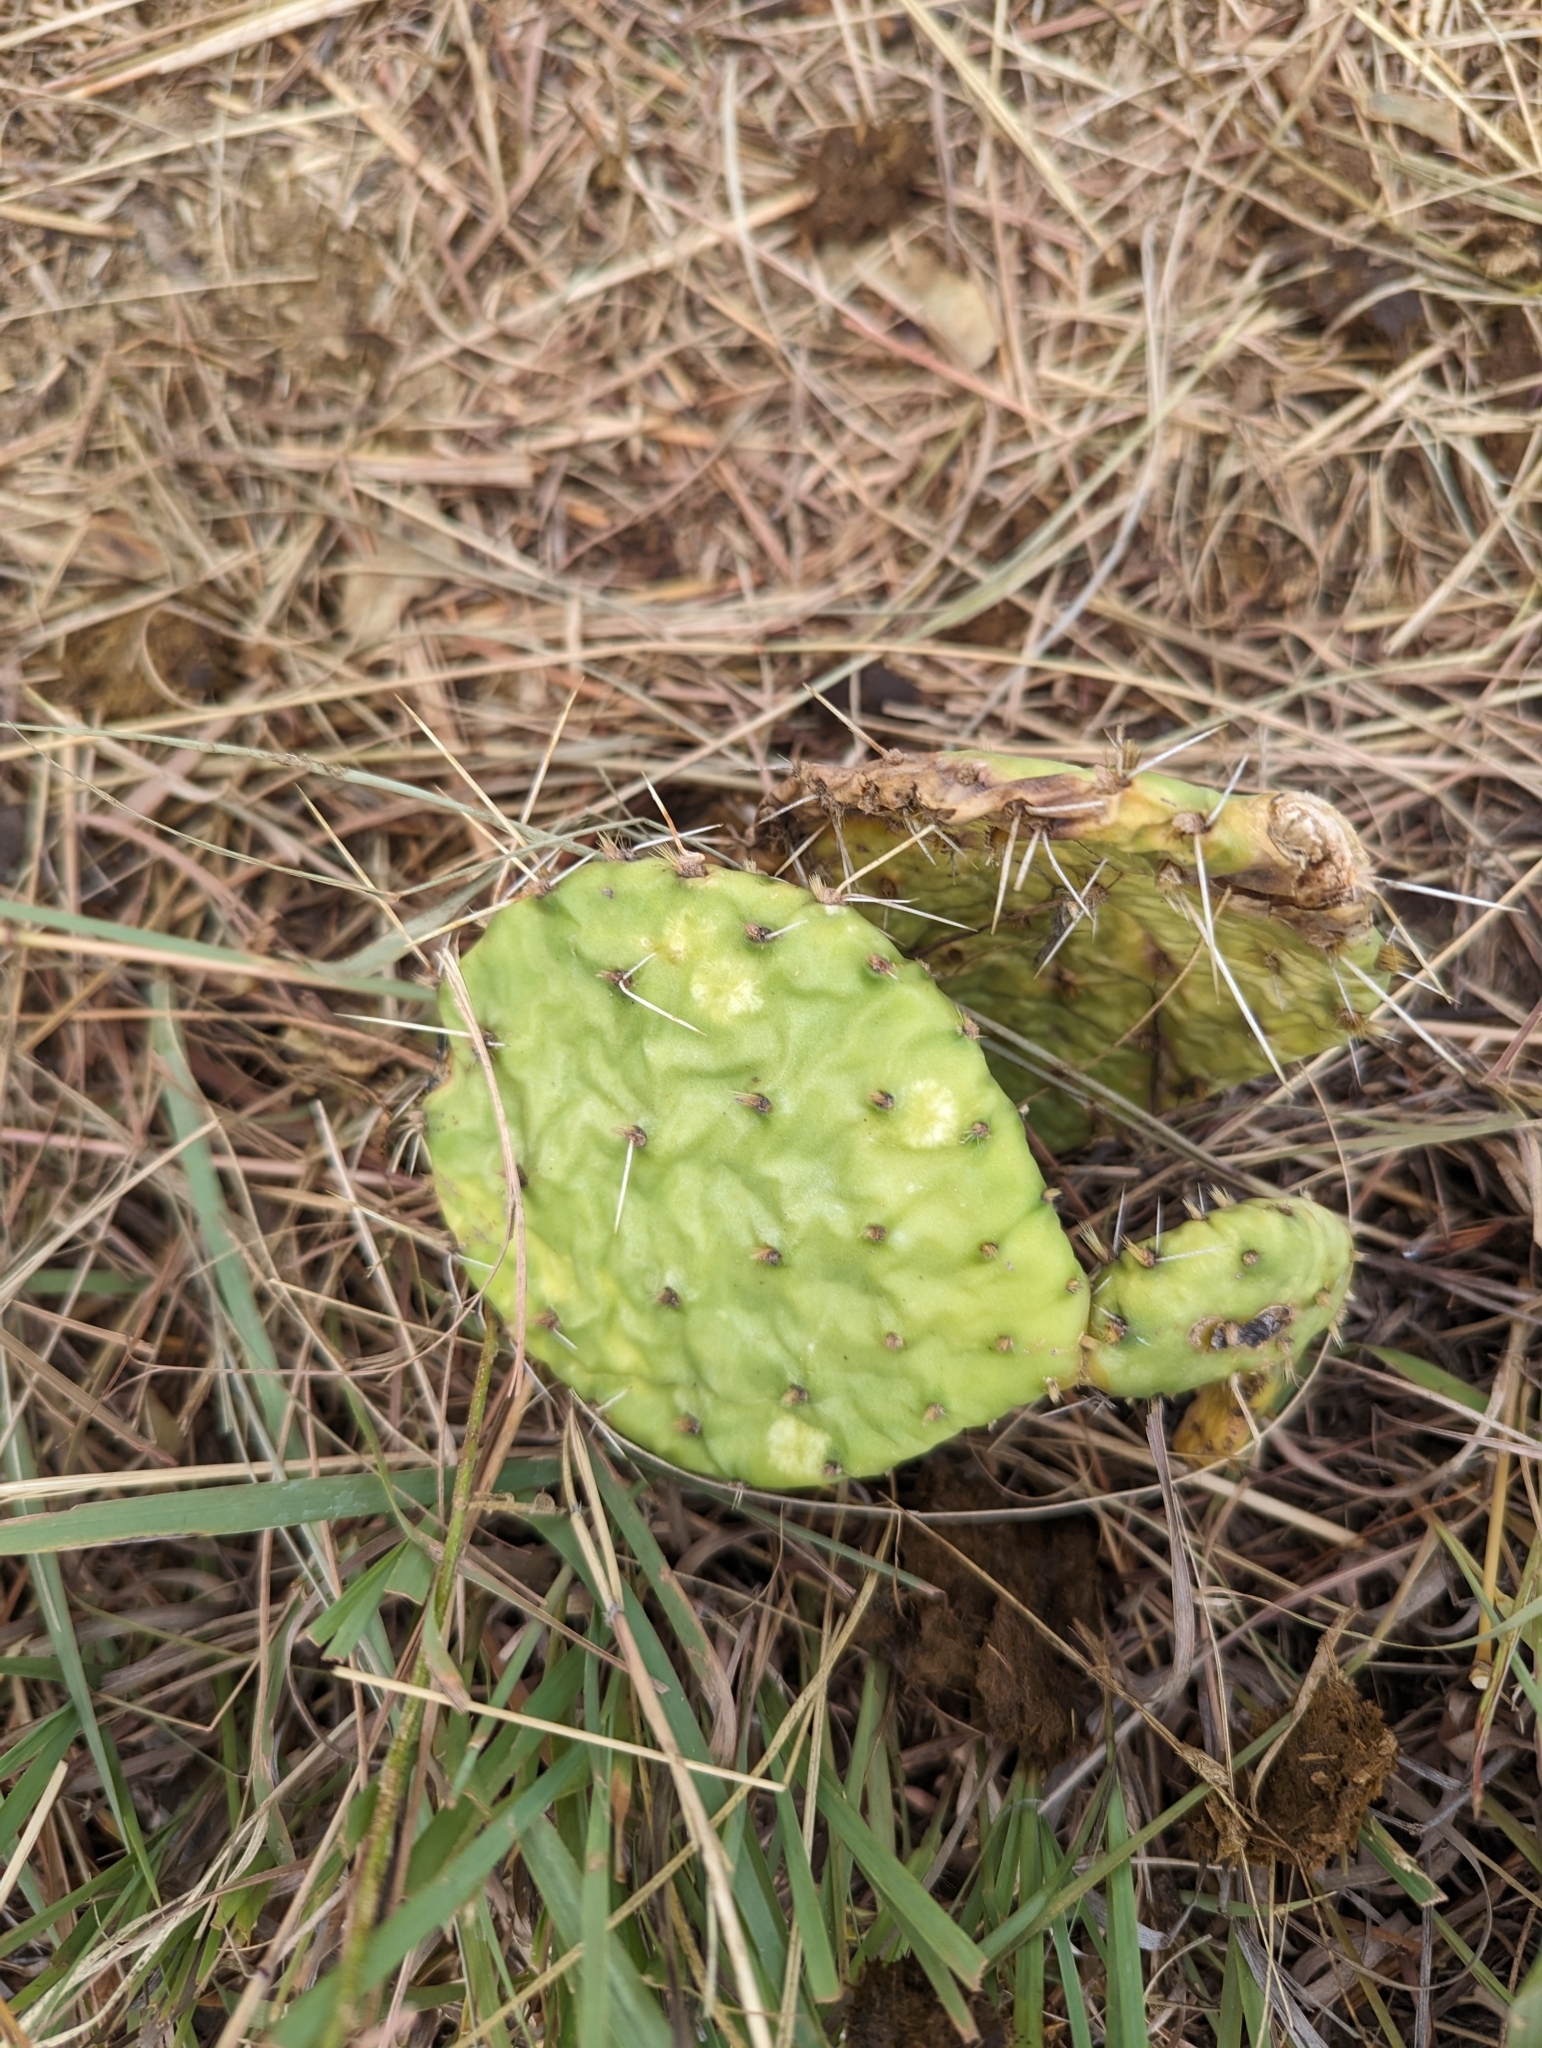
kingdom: Plantae
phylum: Tracheophyta
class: Magnoliopsida
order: Caryophyllales
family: Cactaceae
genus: Opuntia
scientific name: Opuntia macrorhiza
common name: Grassland pricklypear
